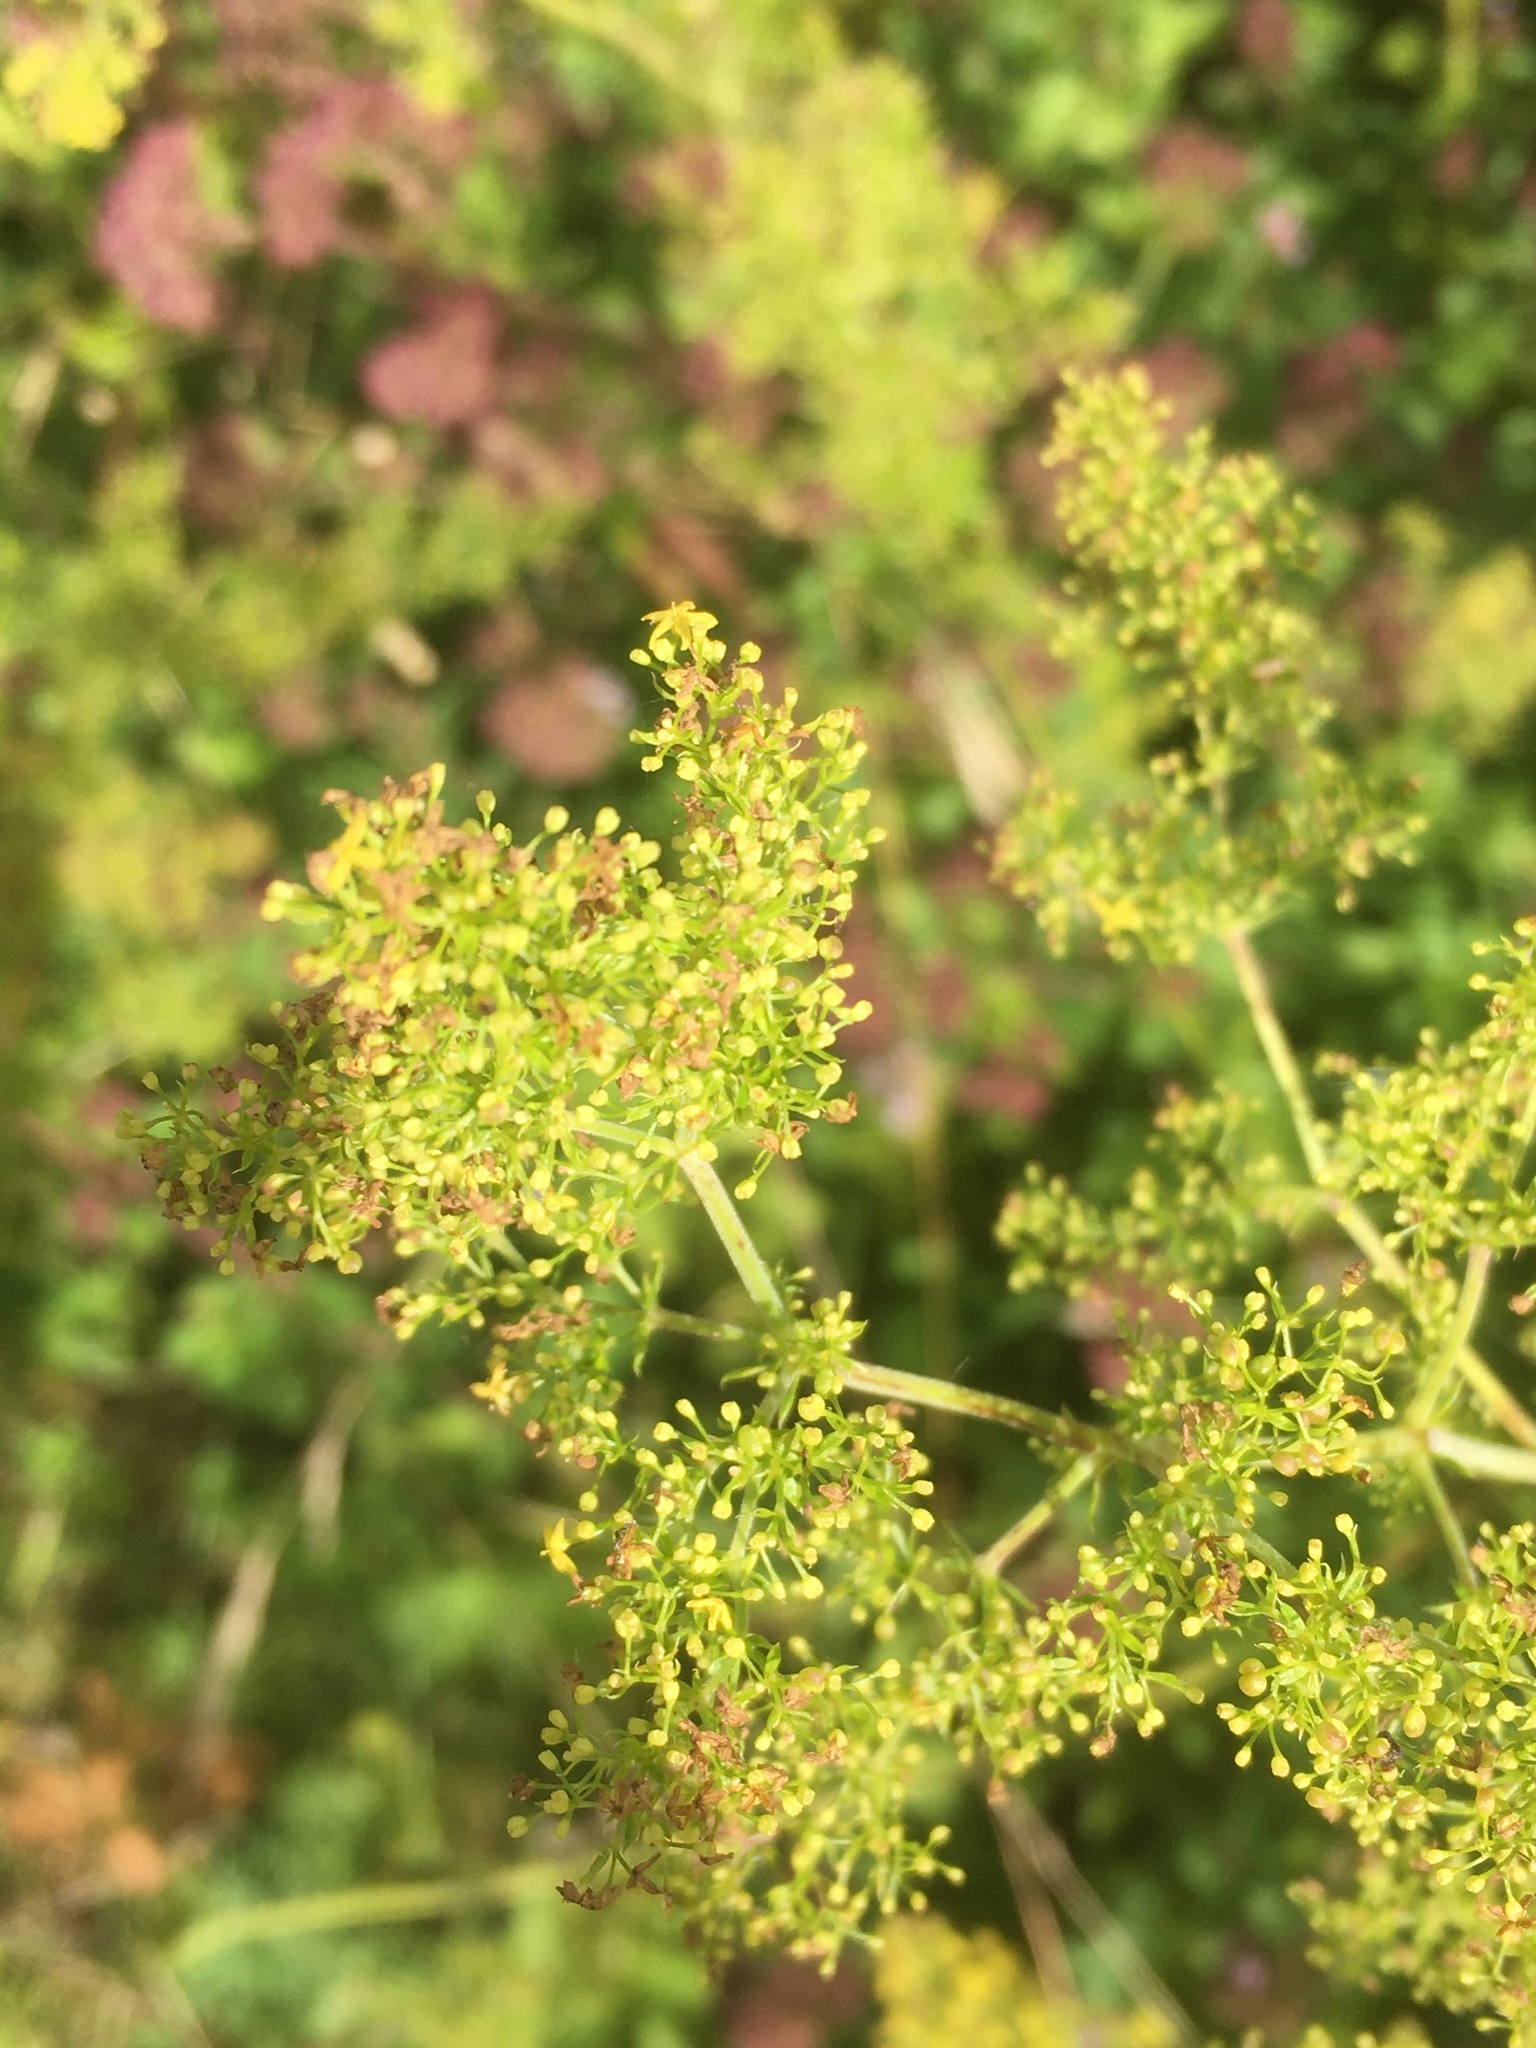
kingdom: Plantae
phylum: Tracheophyta
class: Magnoliopsida
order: Gentianales
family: Rubiaceae
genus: Galium
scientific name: Galium verum
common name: Lady's bedstraw
